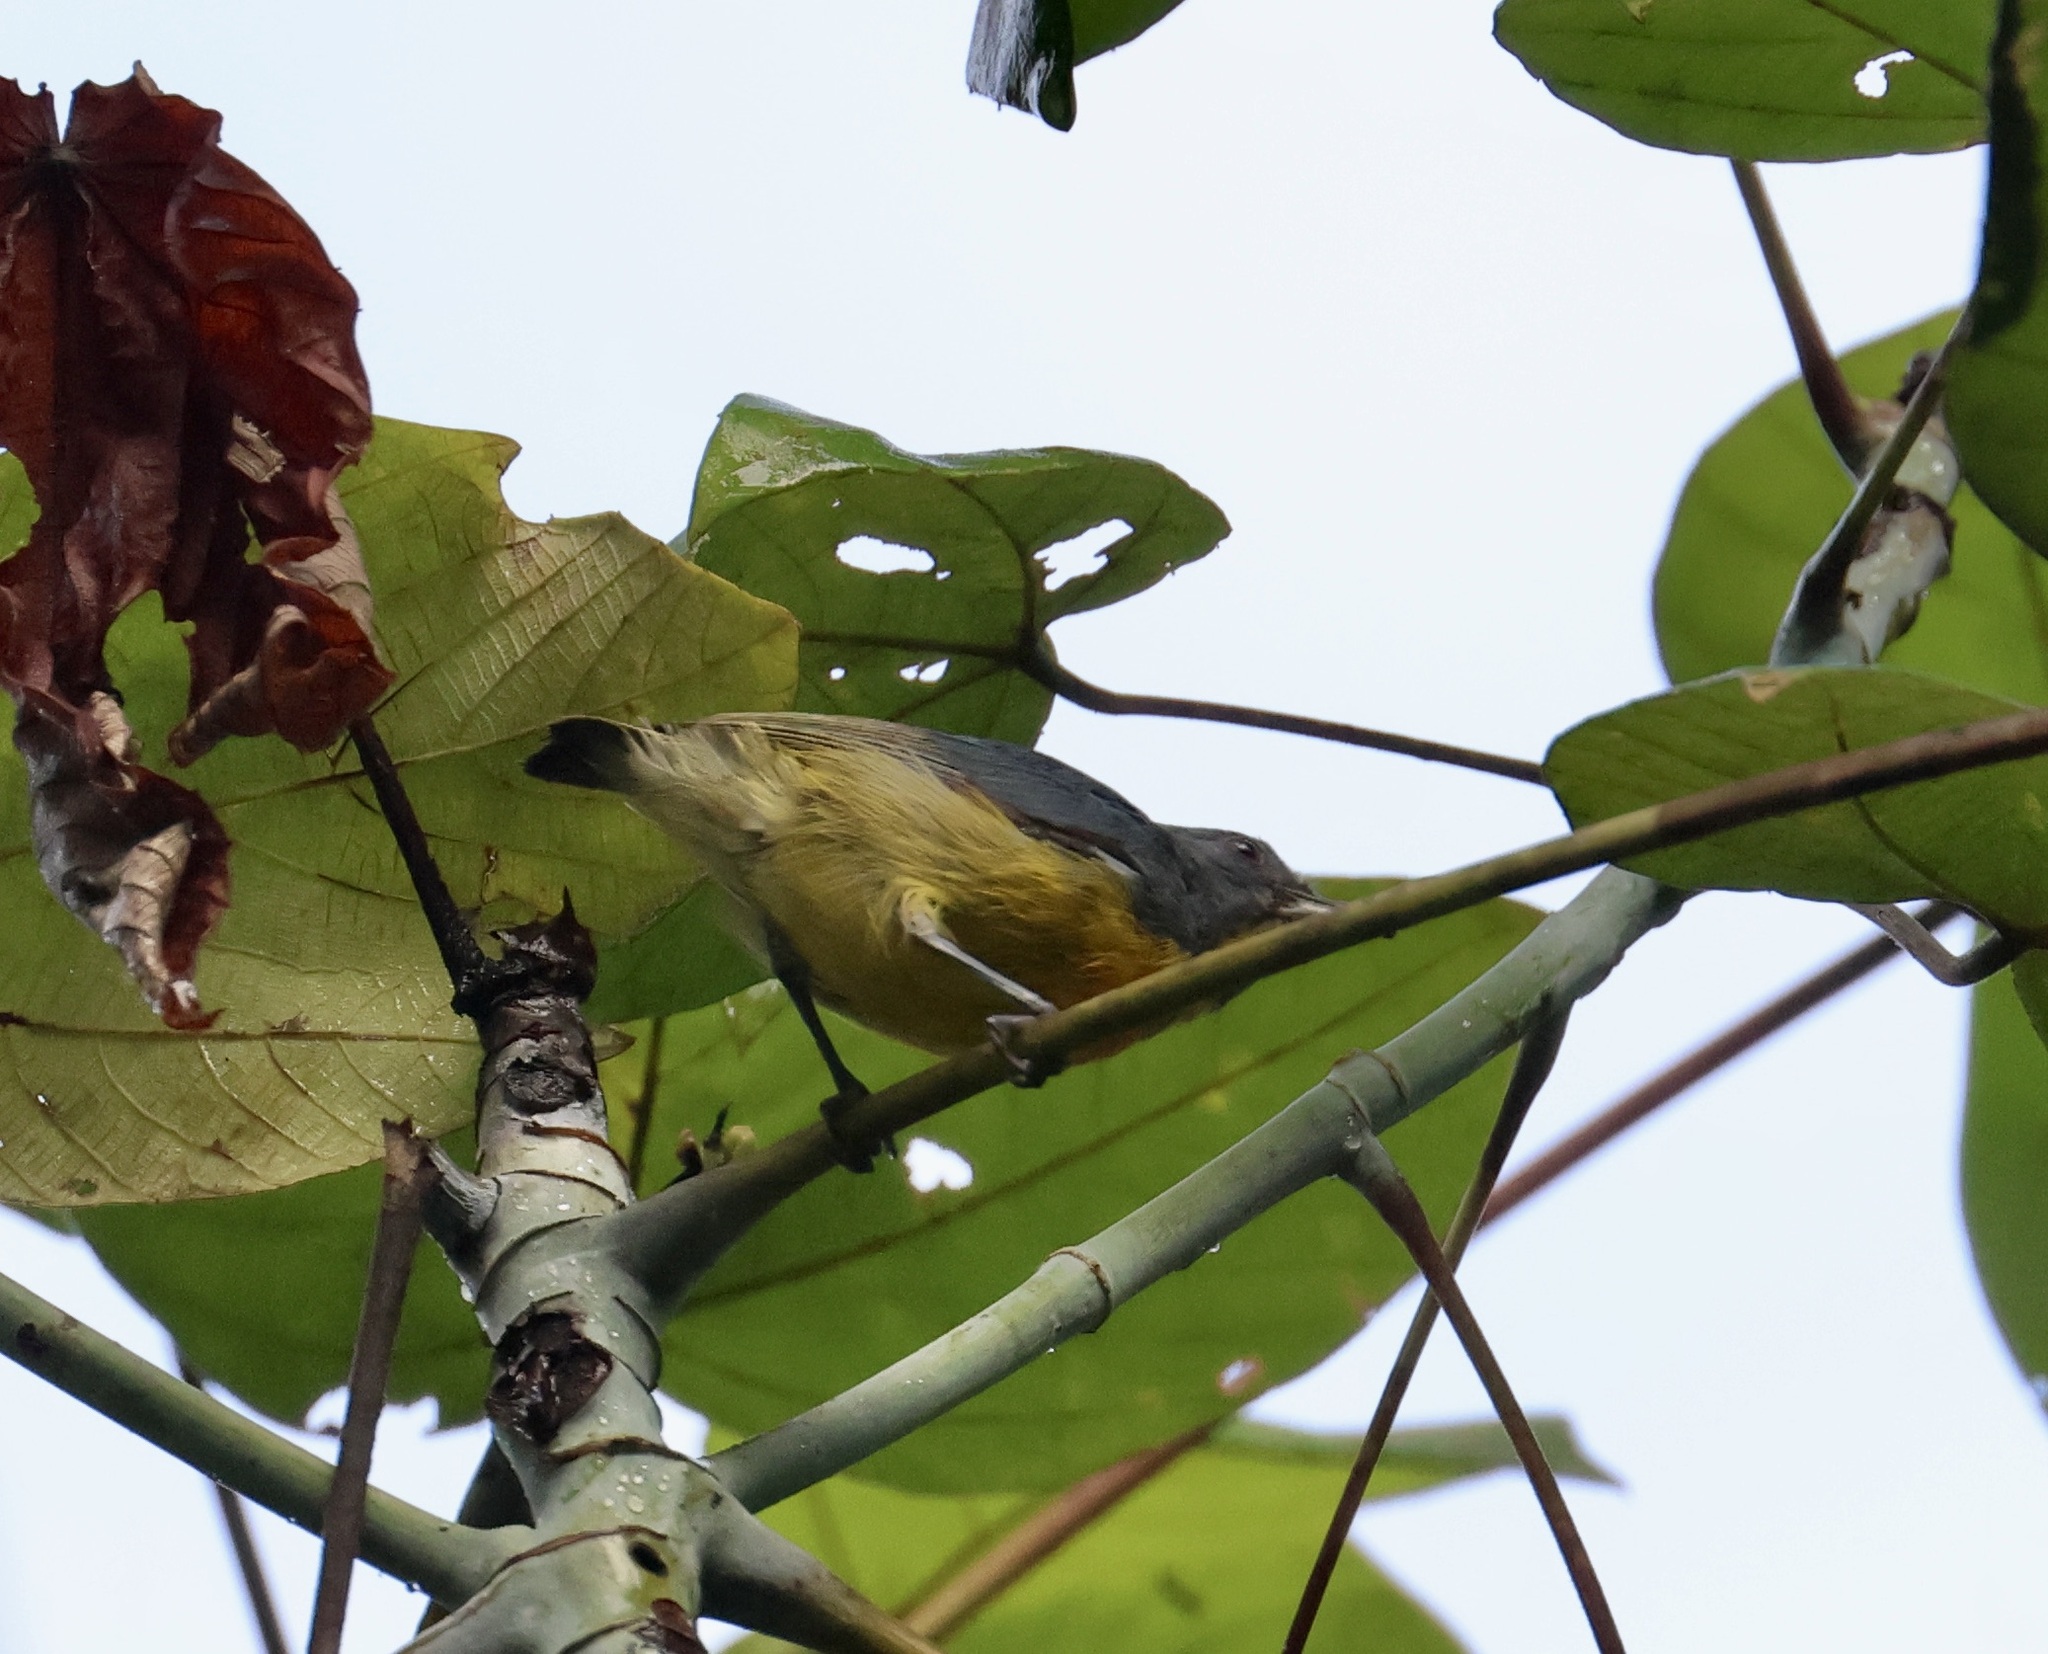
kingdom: Animalia
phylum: Chordata
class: Aves
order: Passeriformes
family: Dicaeidae
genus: Prionochilus
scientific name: Prionochilus xanthopygius
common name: Yellow-rumped flowerpecker
